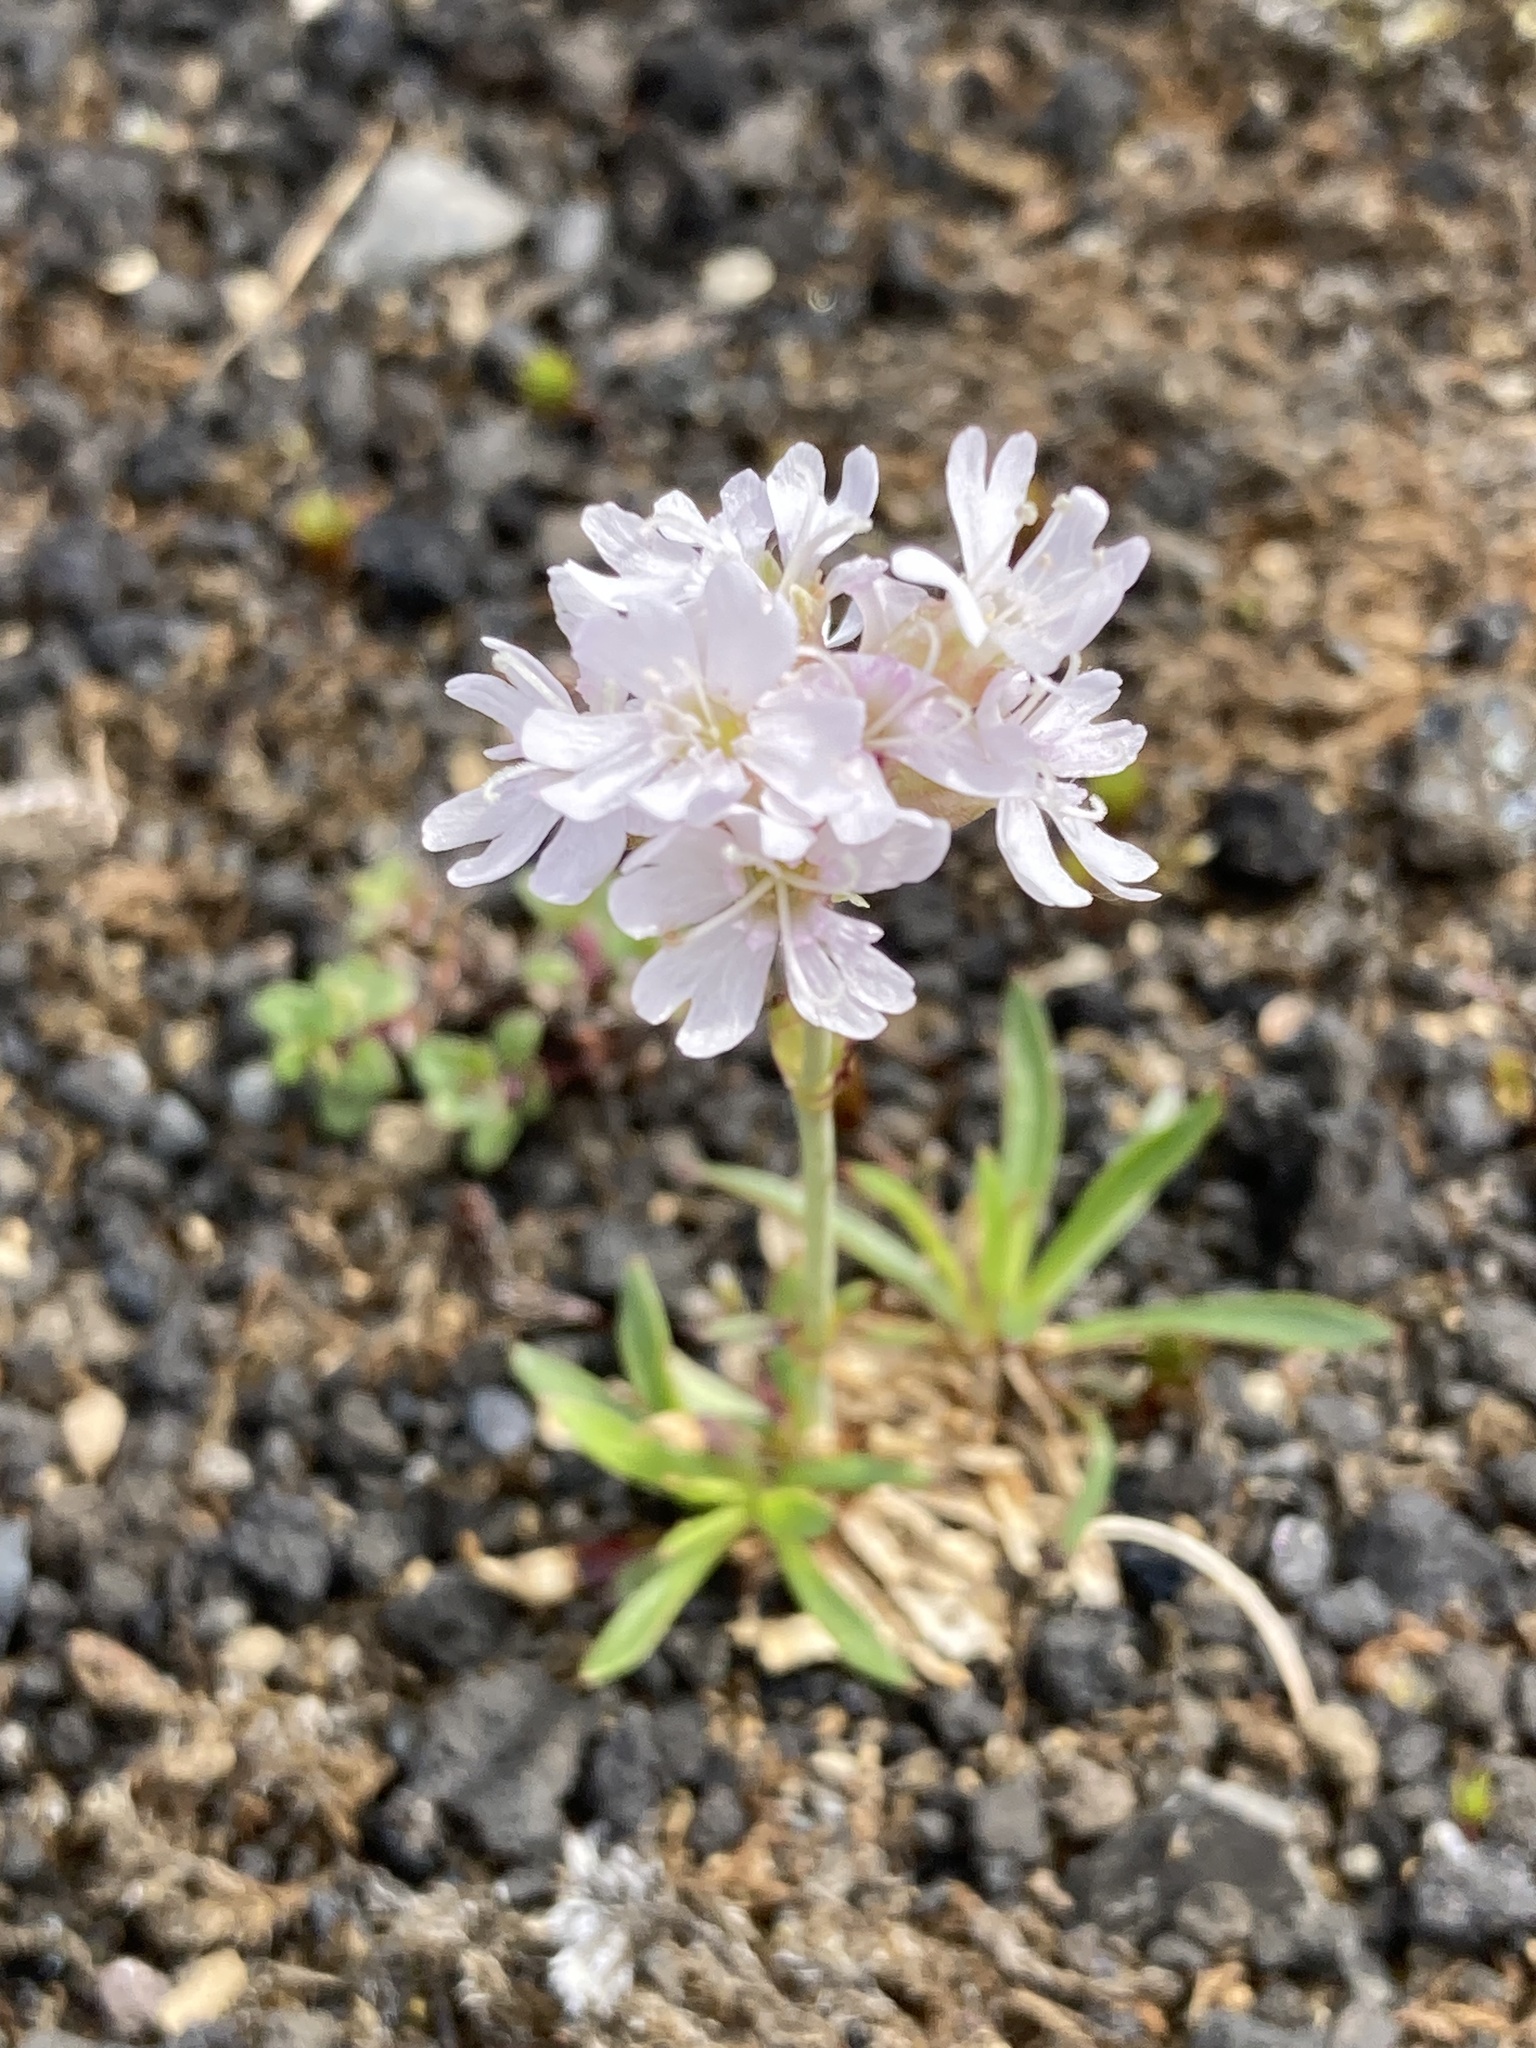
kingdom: Plantae
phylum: Tracheophyta
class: Magnoliopsida
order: Caryophyllales
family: Caryophyllaceae
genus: Viscaria
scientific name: Viscaria alpina
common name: Alpine campion
